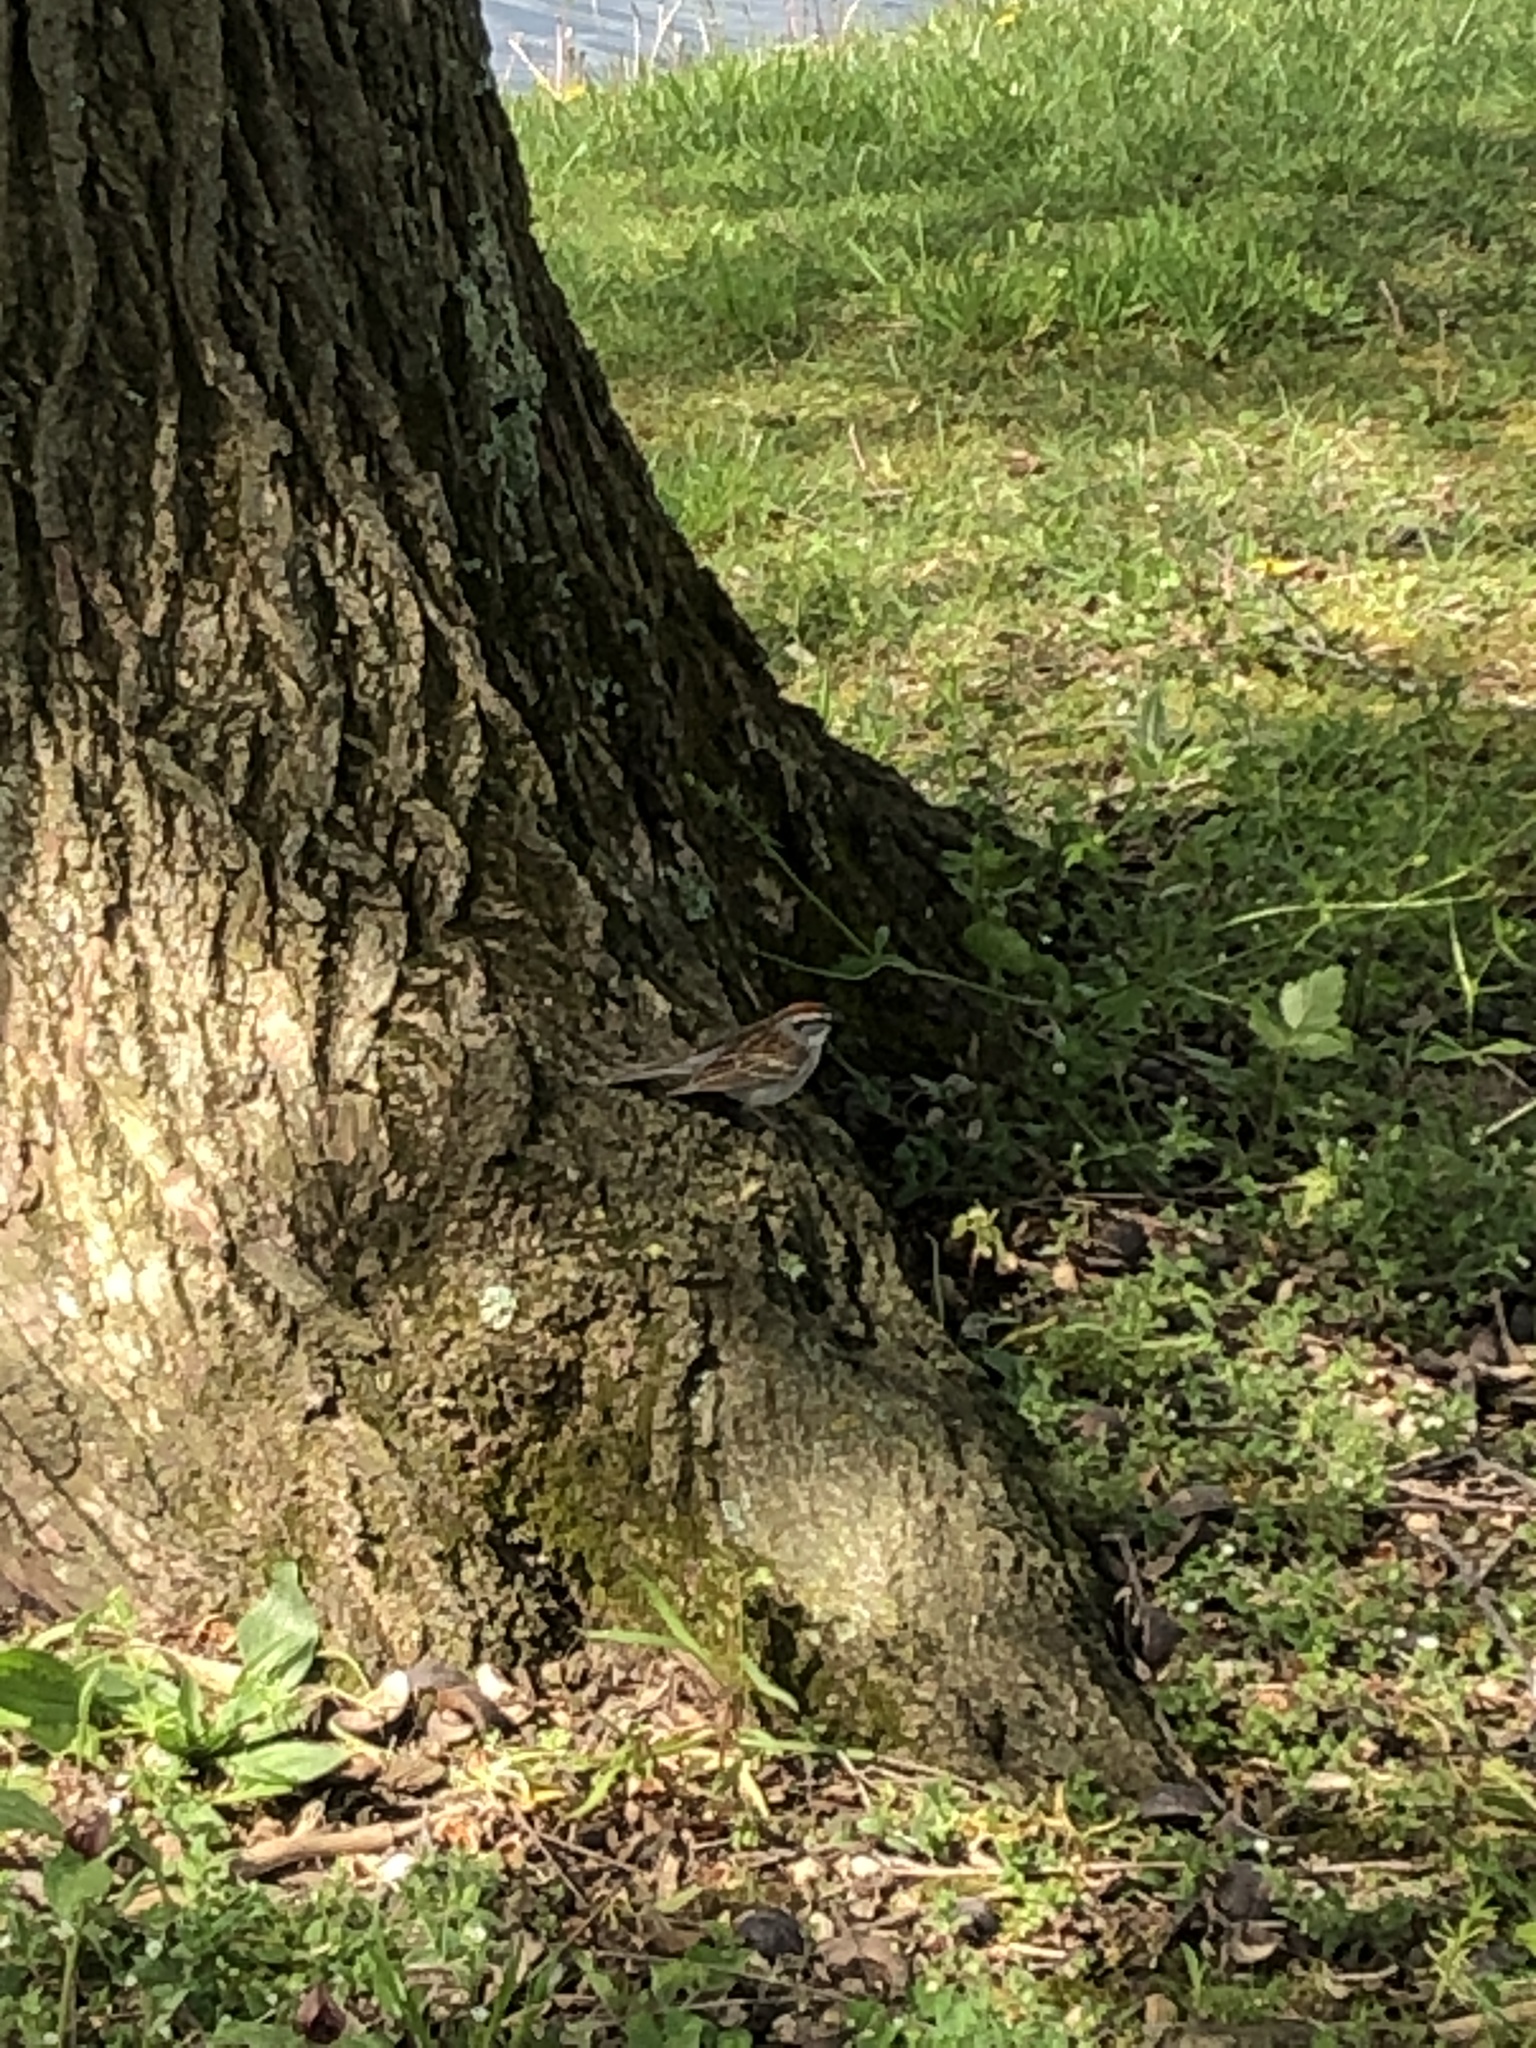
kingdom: Animalia
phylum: Chordata
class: Aves
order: Passeriformes
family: Passerellidae
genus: Spizella
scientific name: Spizella passerina
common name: Chipping sparrow
